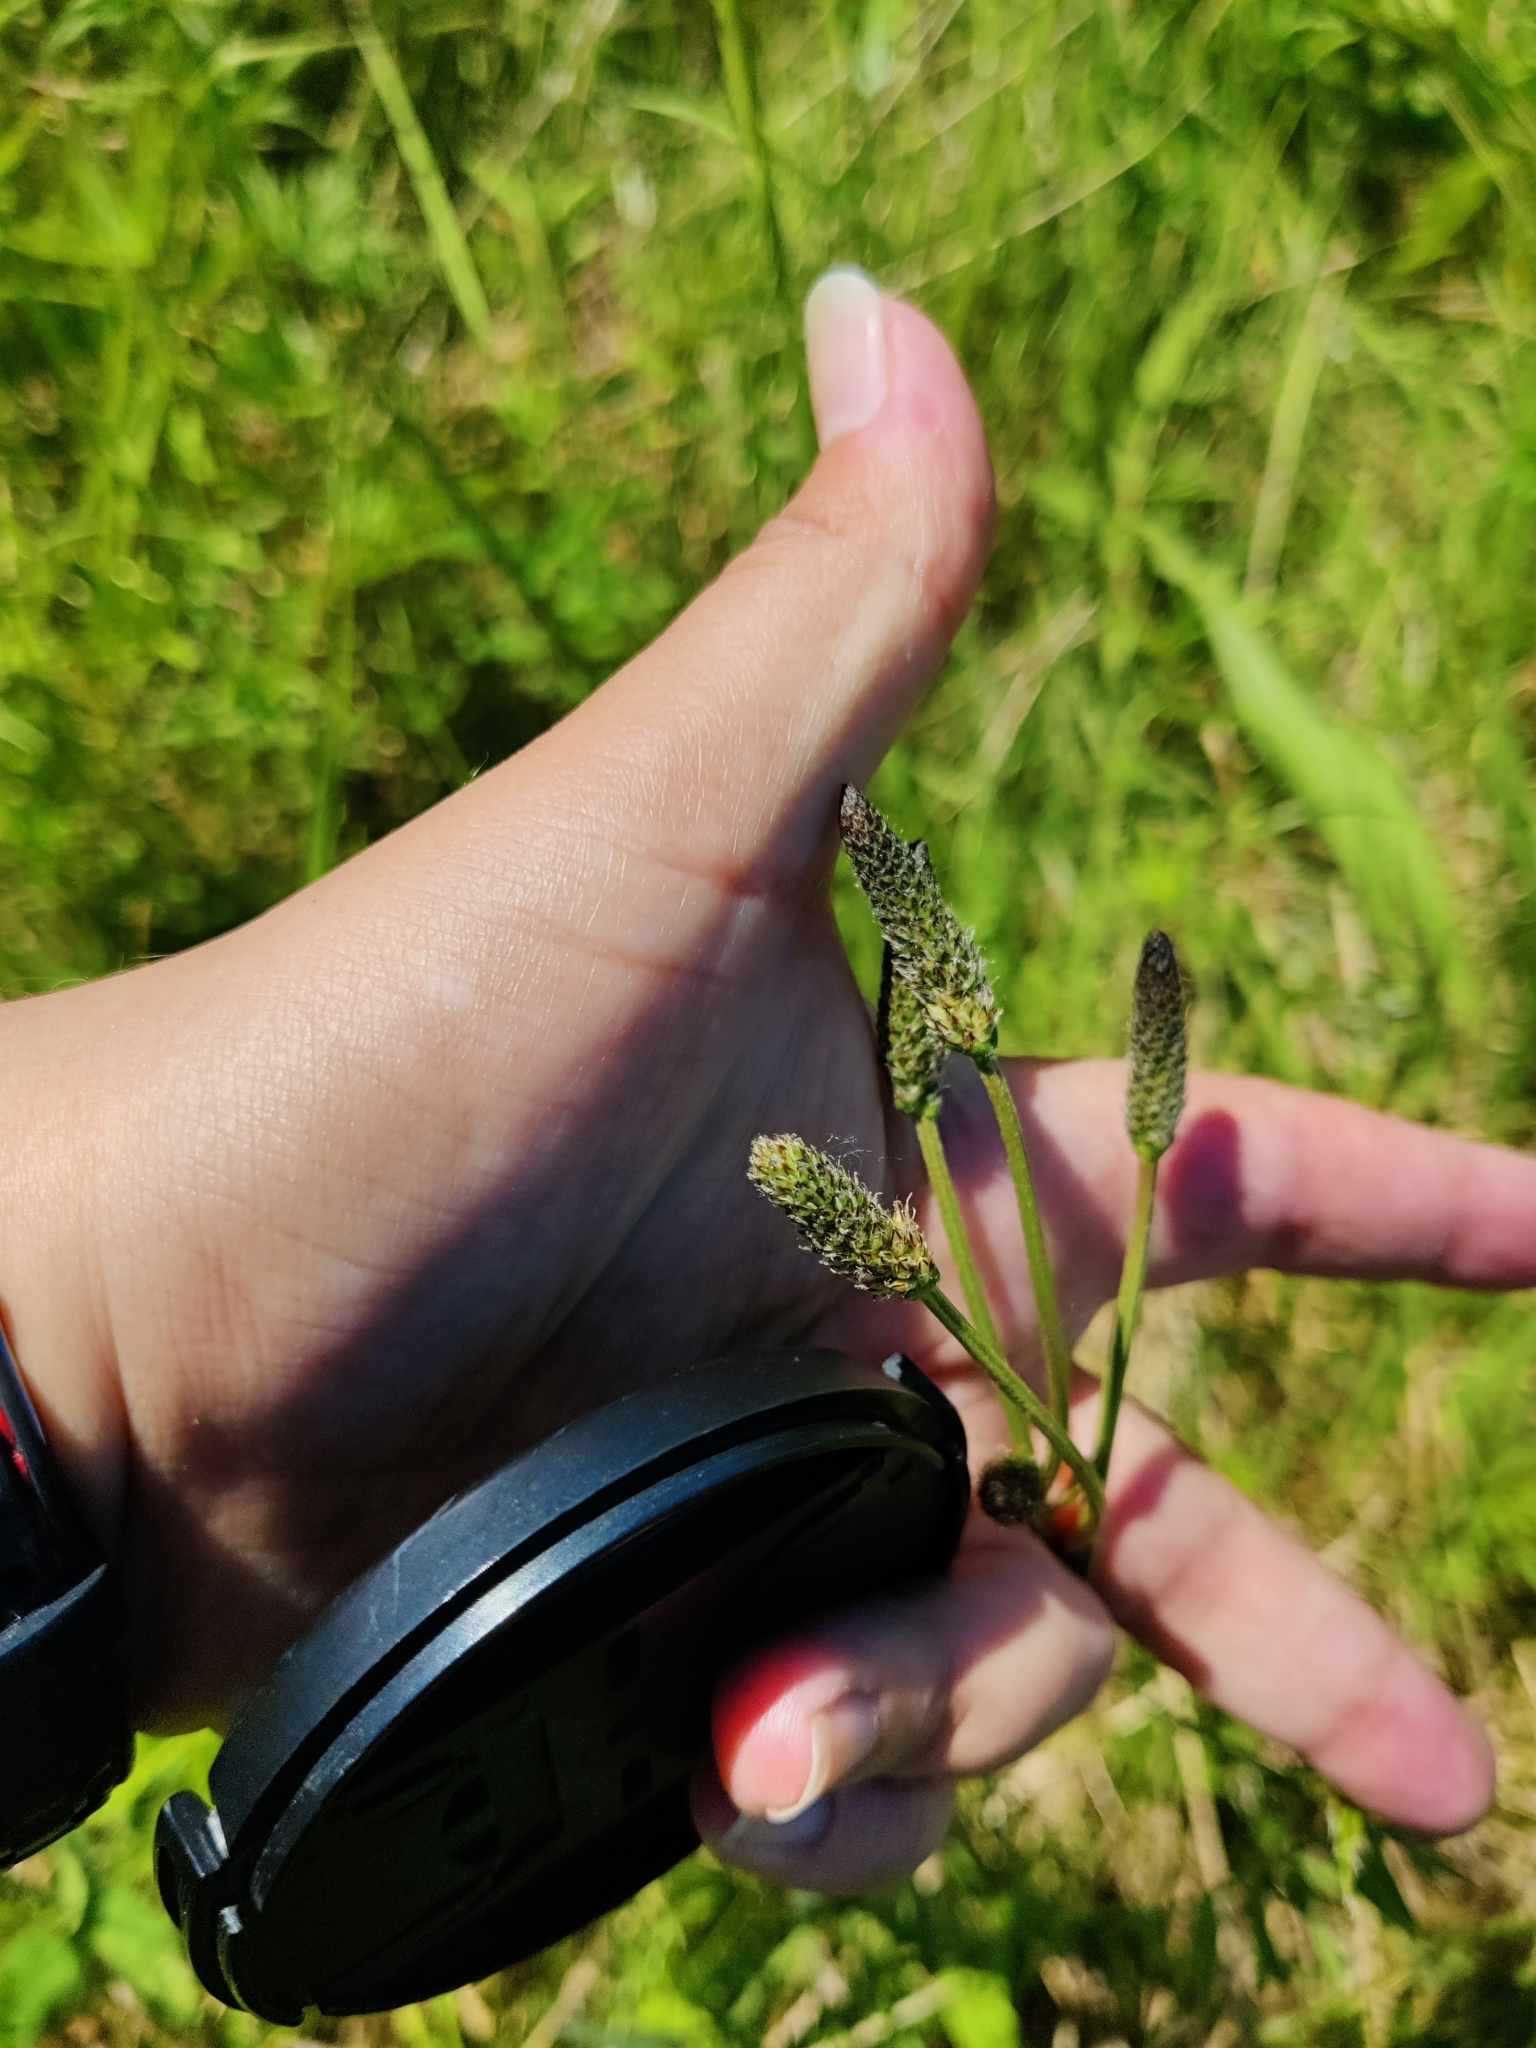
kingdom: Plantae
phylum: Tracheophyta
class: Magnoliopsida
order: Lamiales
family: Plantaginaceae
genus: Plantago
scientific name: Plantago lanceolata
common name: Ribwort plantain
